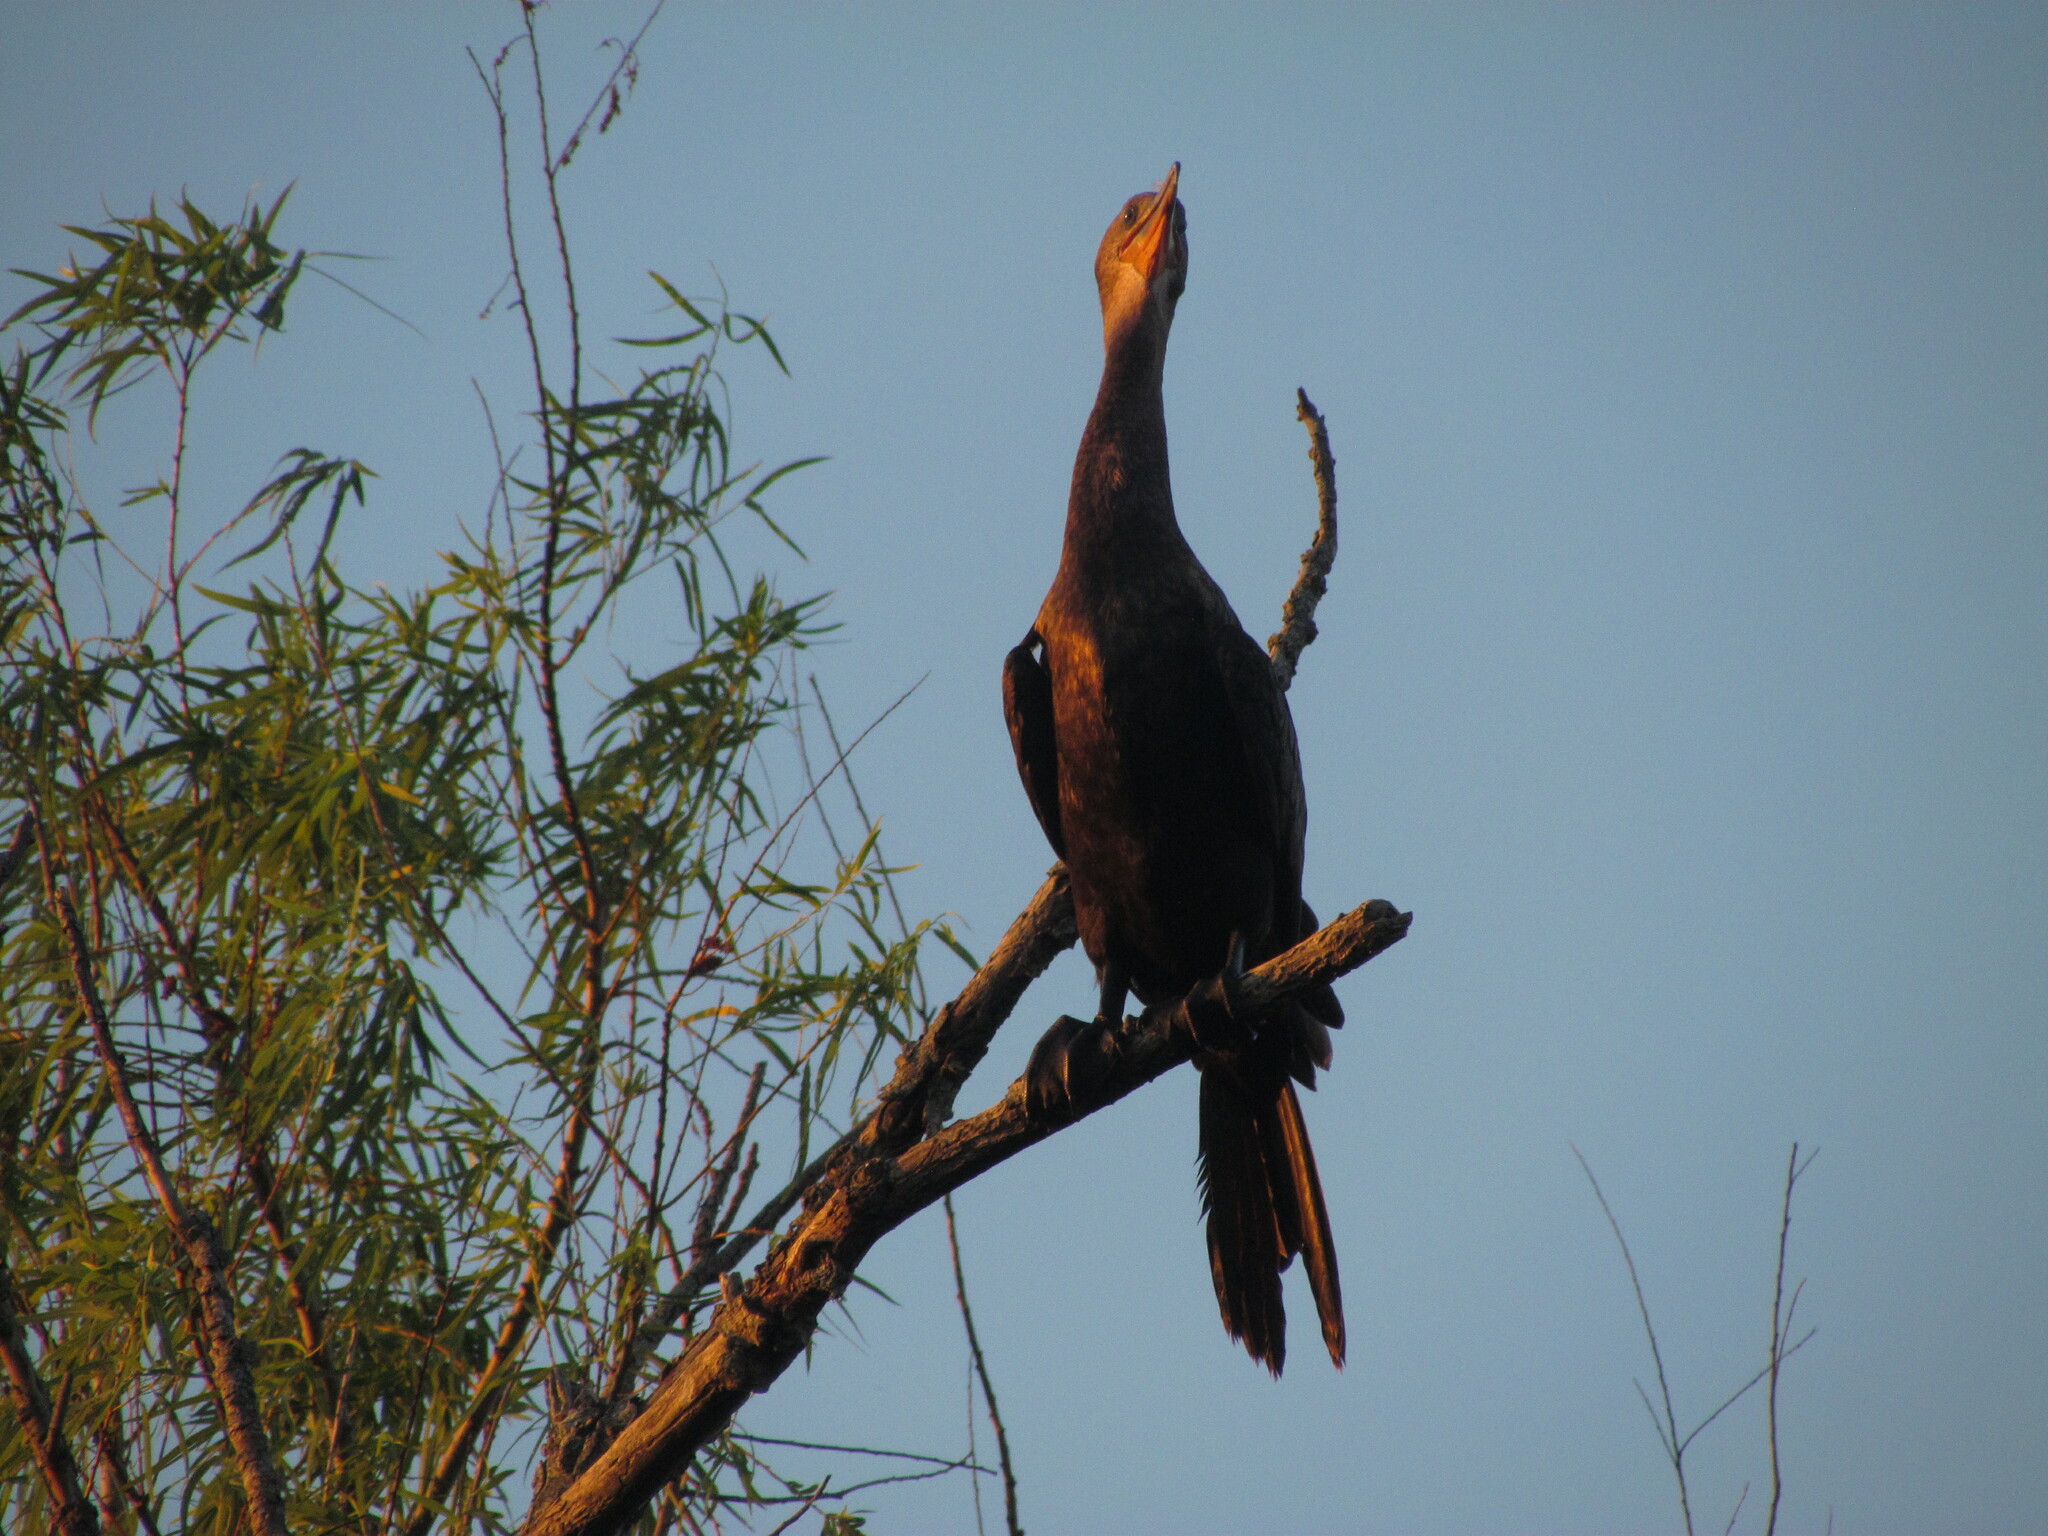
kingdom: Animalia
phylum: Chordata
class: Aves
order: Suliformes
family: Phalacrocoracidae
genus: Phalacrocorax
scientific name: Phalacrocorax brasilianus
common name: Neotropic cormorant
